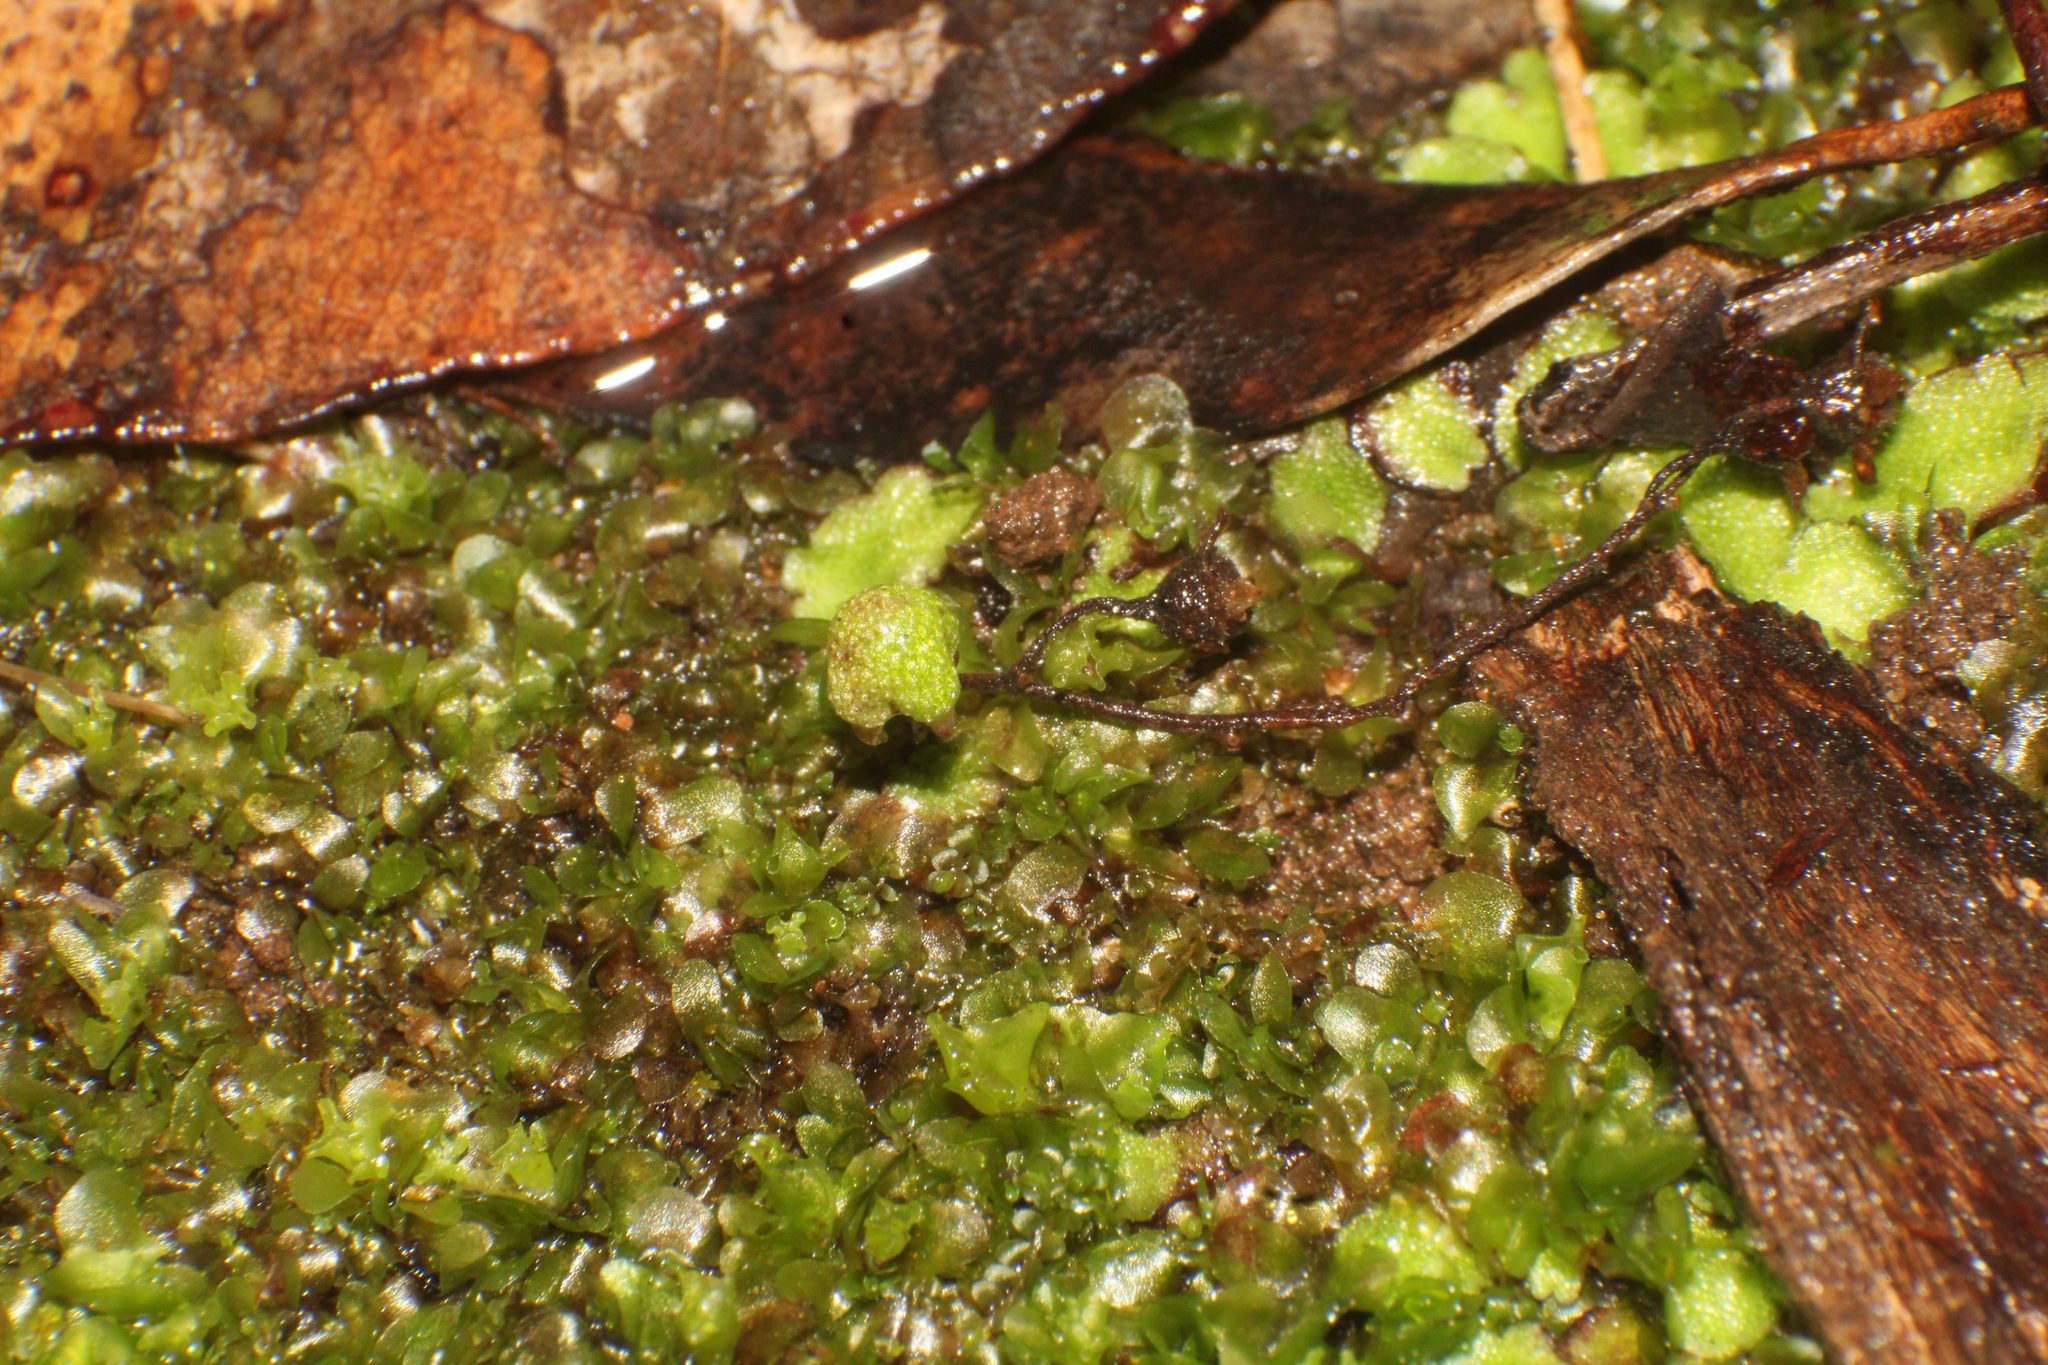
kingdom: Plantae
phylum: Marchantiophyta
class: Marchantiopsida
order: Marchantiales
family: Aytoniaceae
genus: Asterella
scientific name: Asterella drummondii
